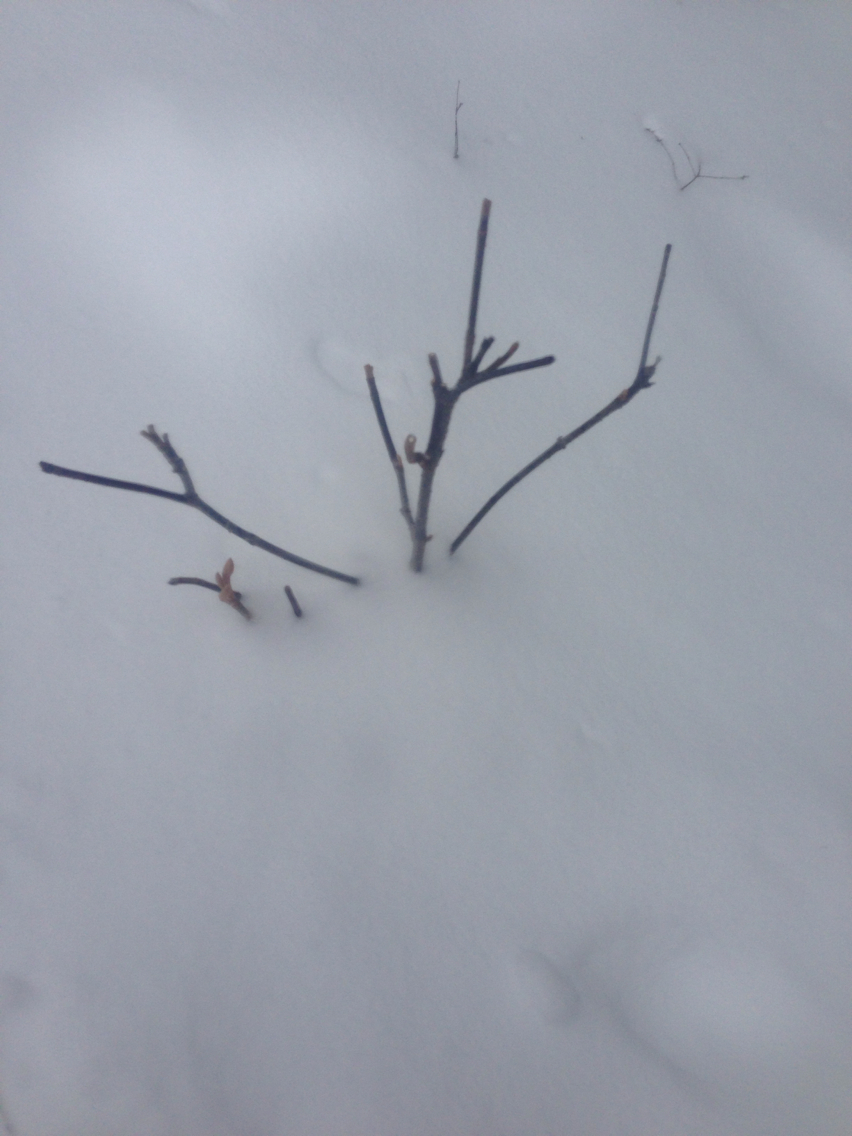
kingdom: Plantae
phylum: Tracheophyta
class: Magnoliopsida
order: Dipsacales
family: Viburnaceae
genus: Viburnum
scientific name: Viburnum lantanoides
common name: Hobblebush
